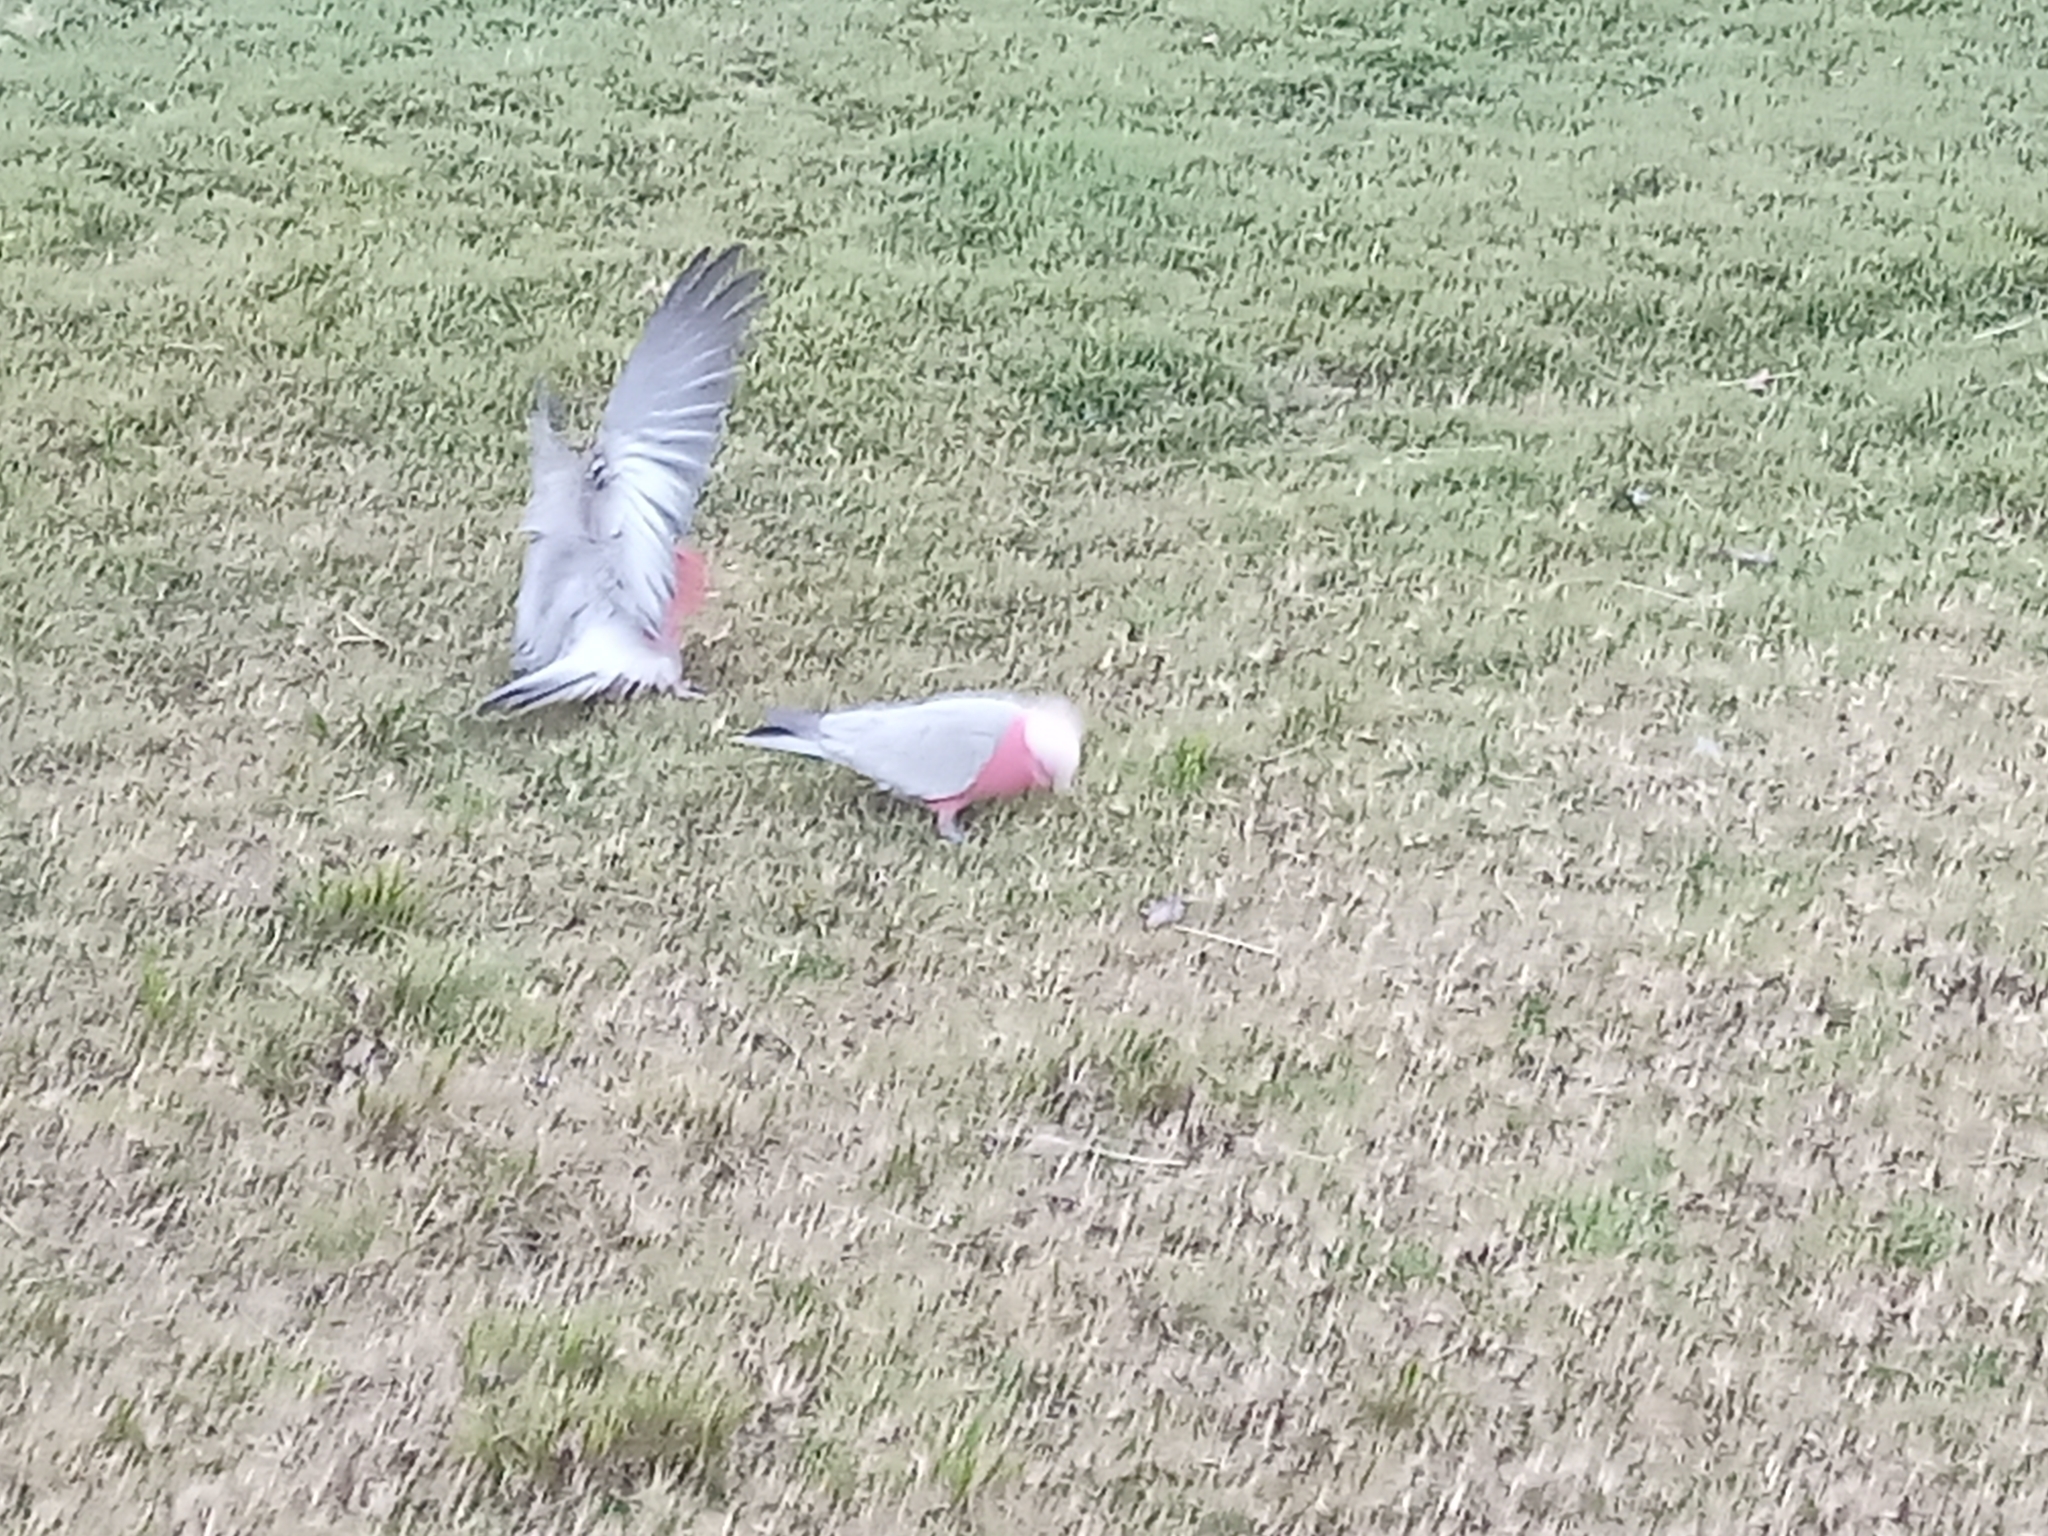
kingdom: Animalia
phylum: Chordata
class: Aves
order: Psittaciformes
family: Psittacidae
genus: Eolophus
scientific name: Eolophus roseicapilla
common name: Galah
